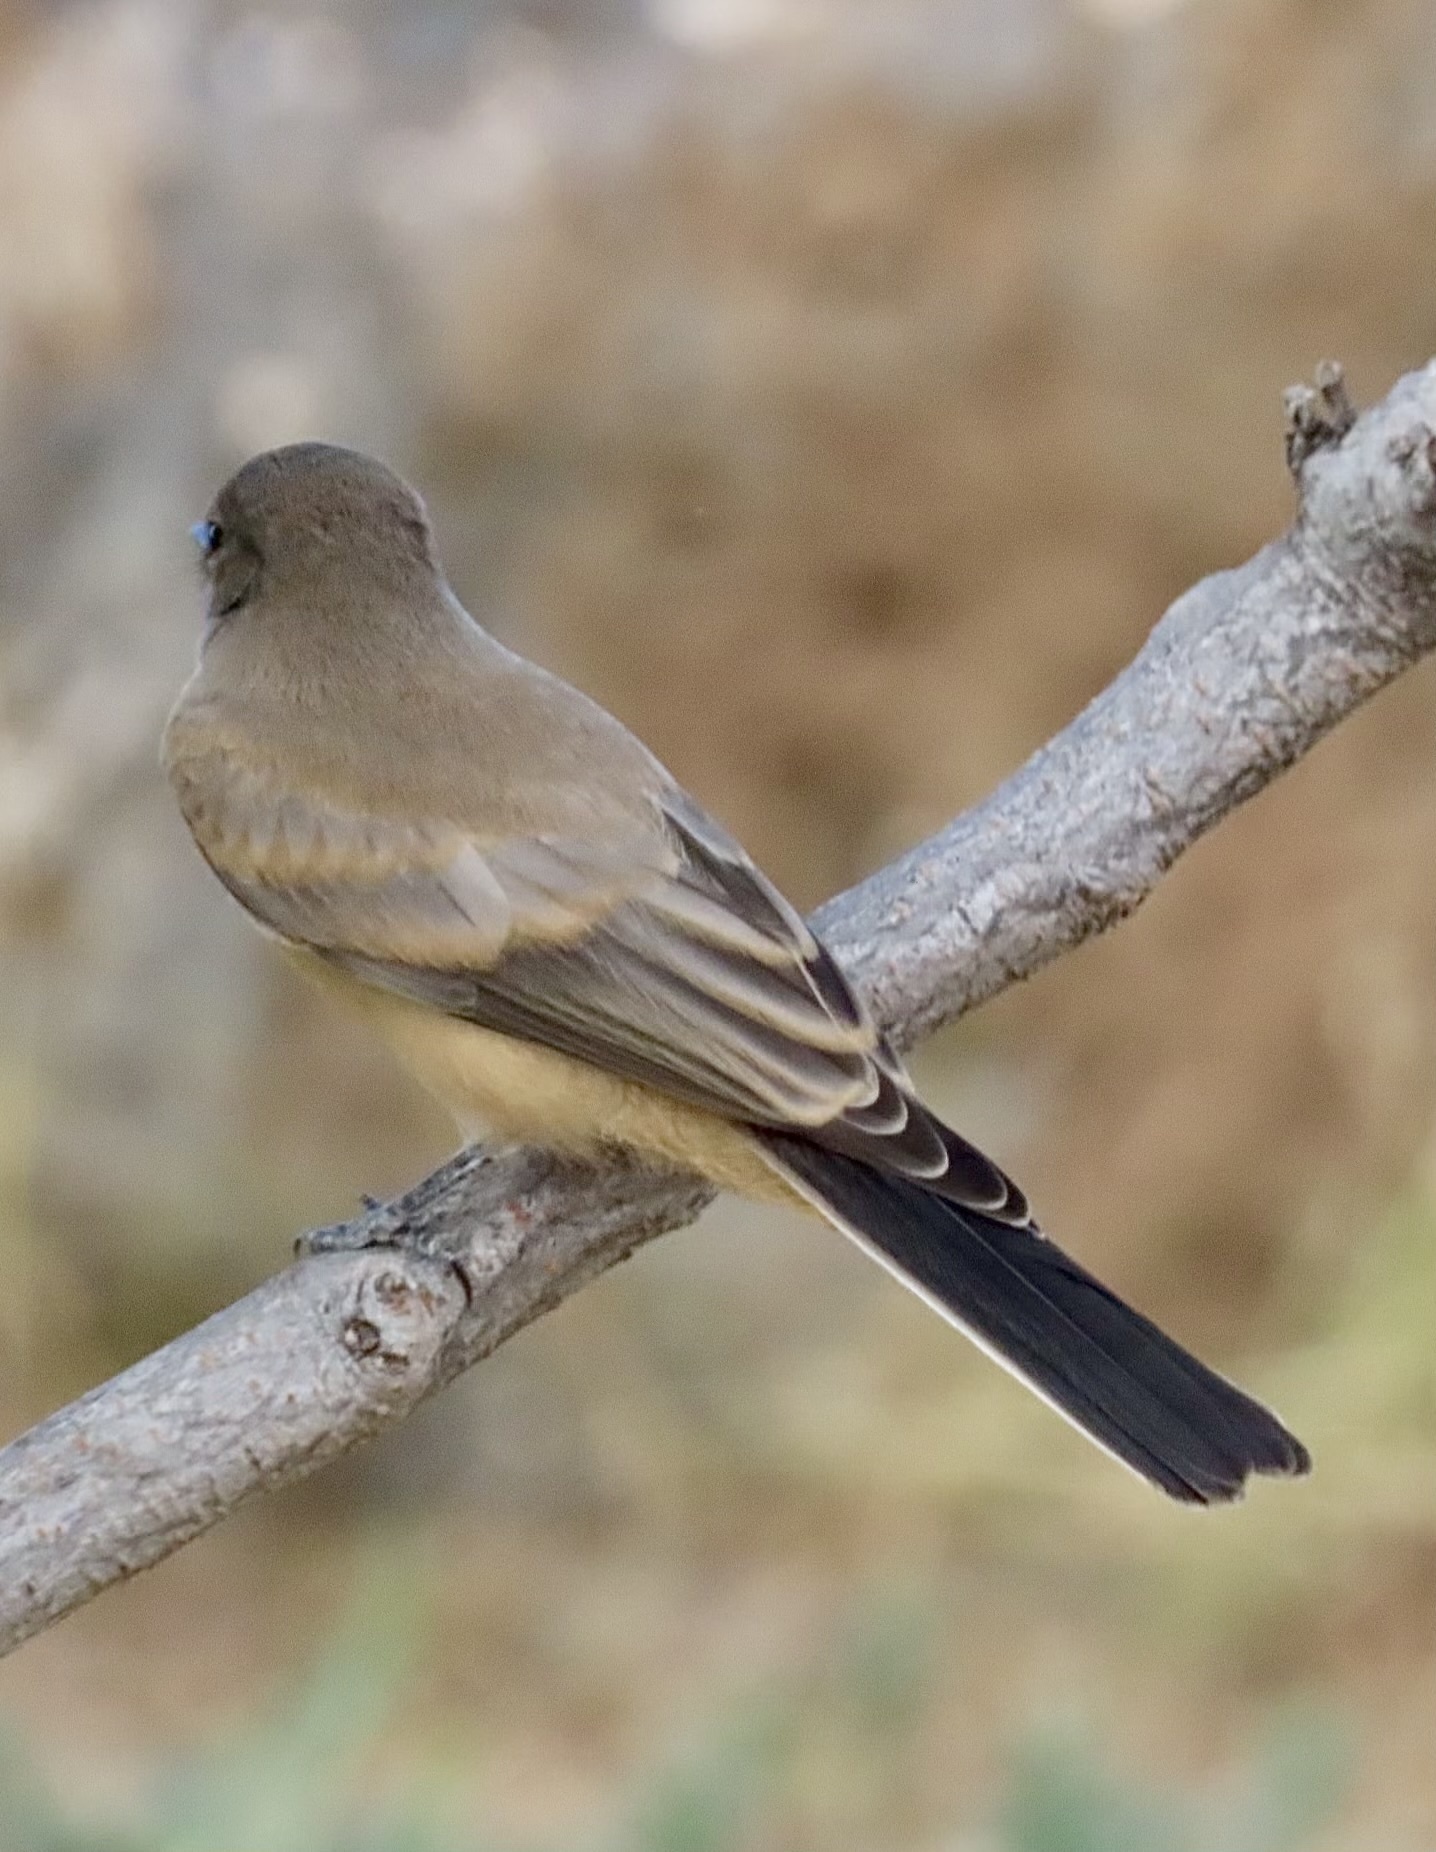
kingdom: Animalia
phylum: Chordata
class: Aves
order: Passeriformes
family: Tyrannidae
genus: Sayornis
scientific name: Sayornis saya
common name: Say's phoebe
